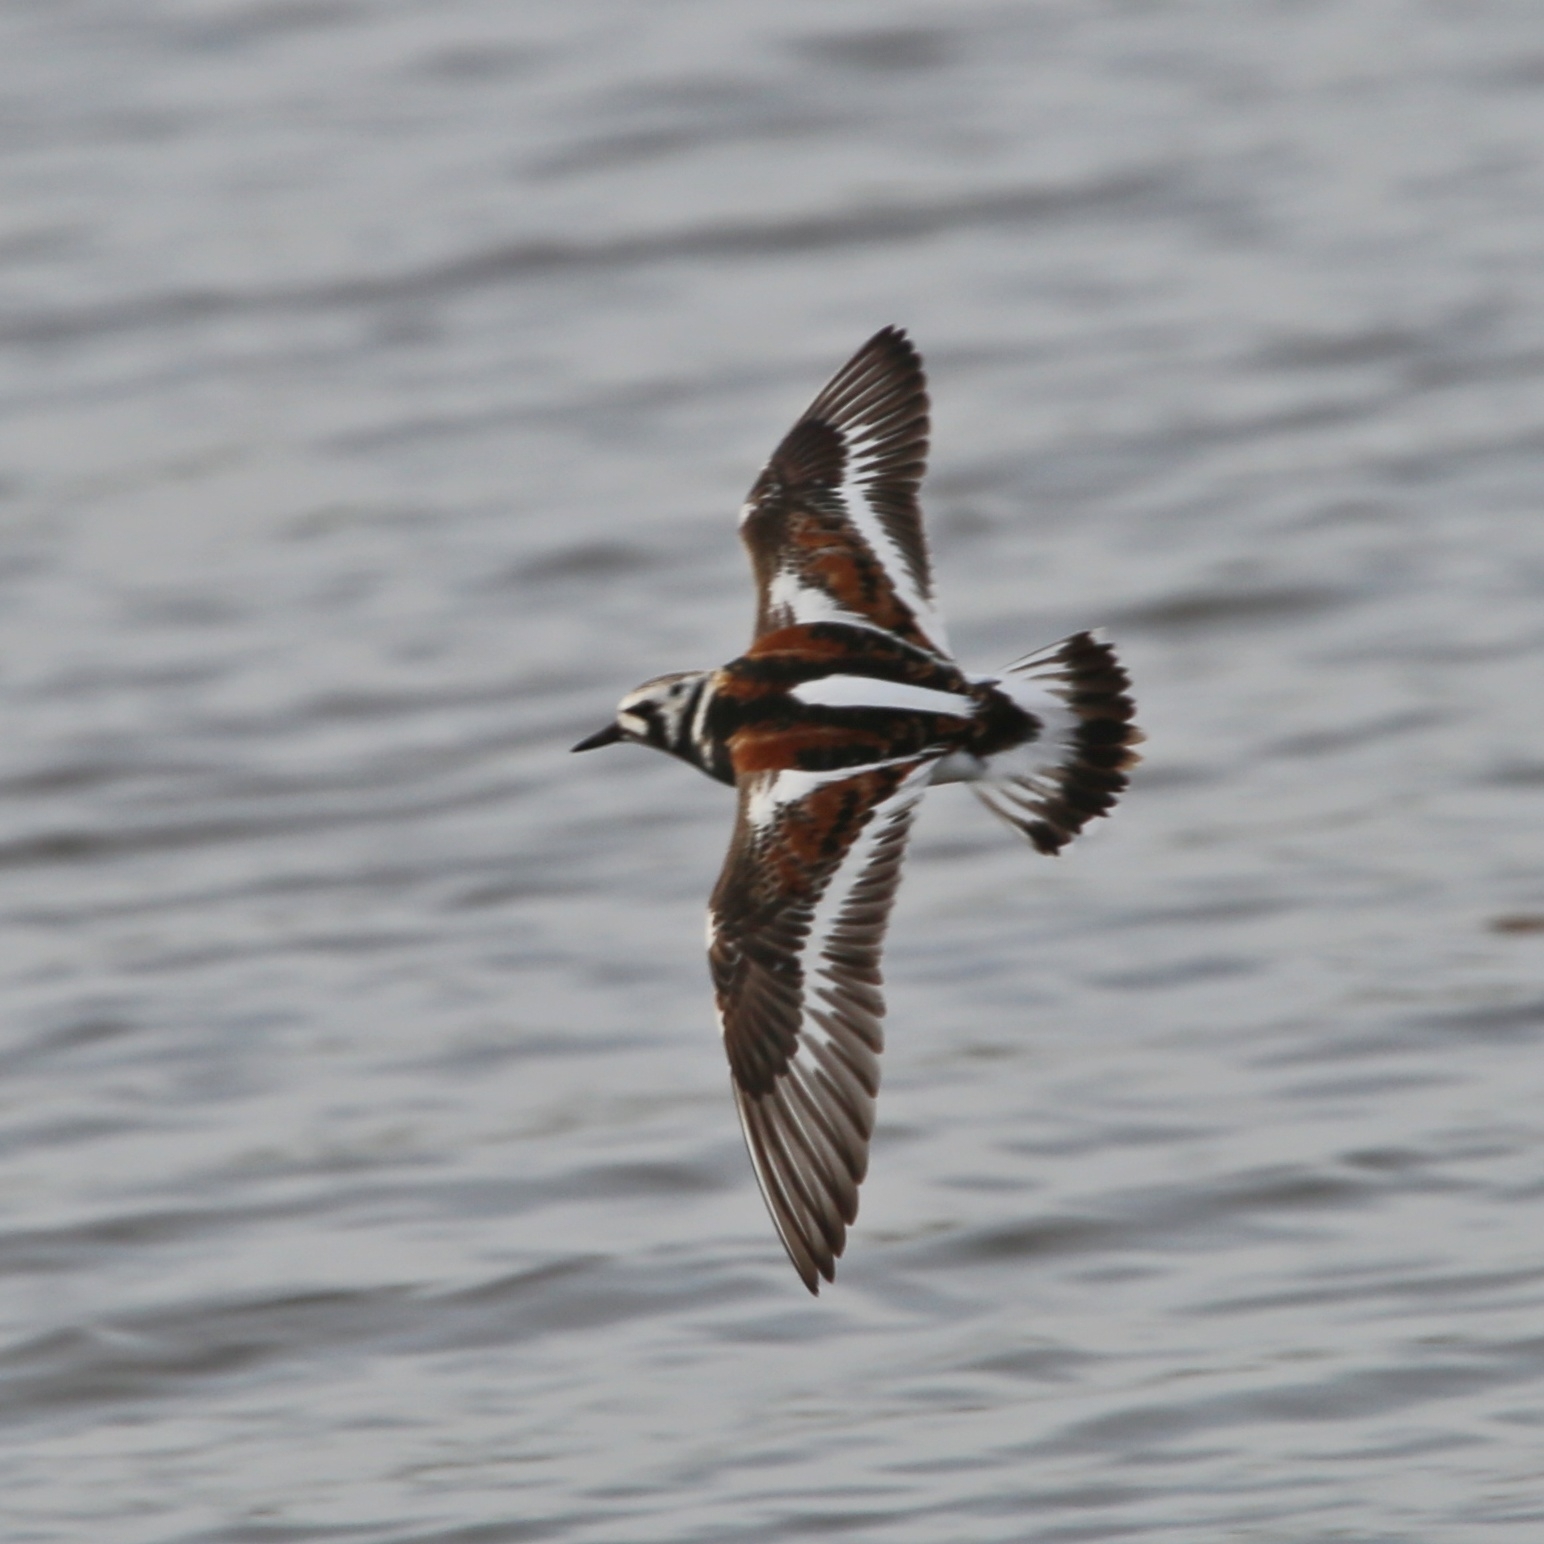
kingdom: Animalia
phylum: Chordata
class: Aves
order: Charadriiformes
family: Scolopacidae
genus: Arenaria
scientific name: Arenaria interpres
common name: Ruddy turnstone
